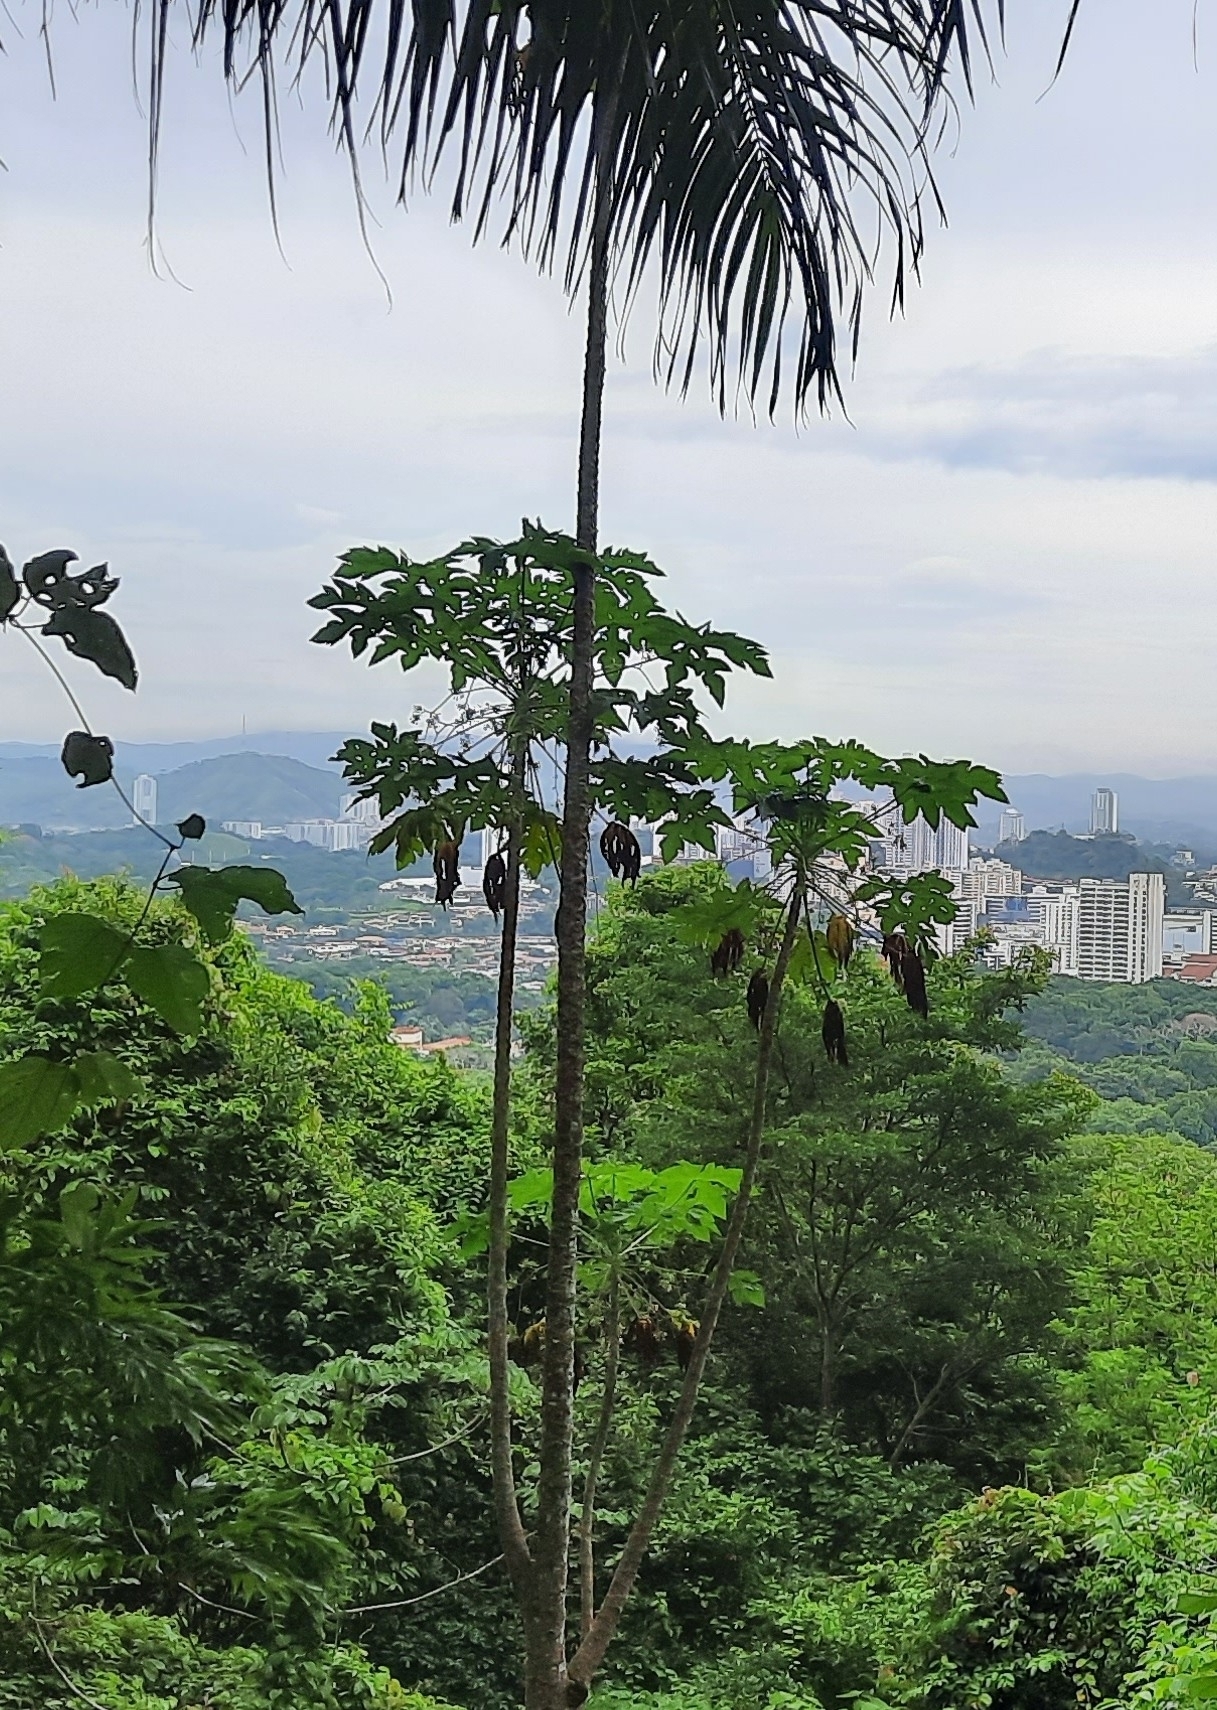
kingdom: Plantae
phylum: Tracheophyta
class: Magnoliopsida
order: Brassicales
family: Caricaceae
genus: Carica
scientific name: Carica papaya
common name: Papaya
